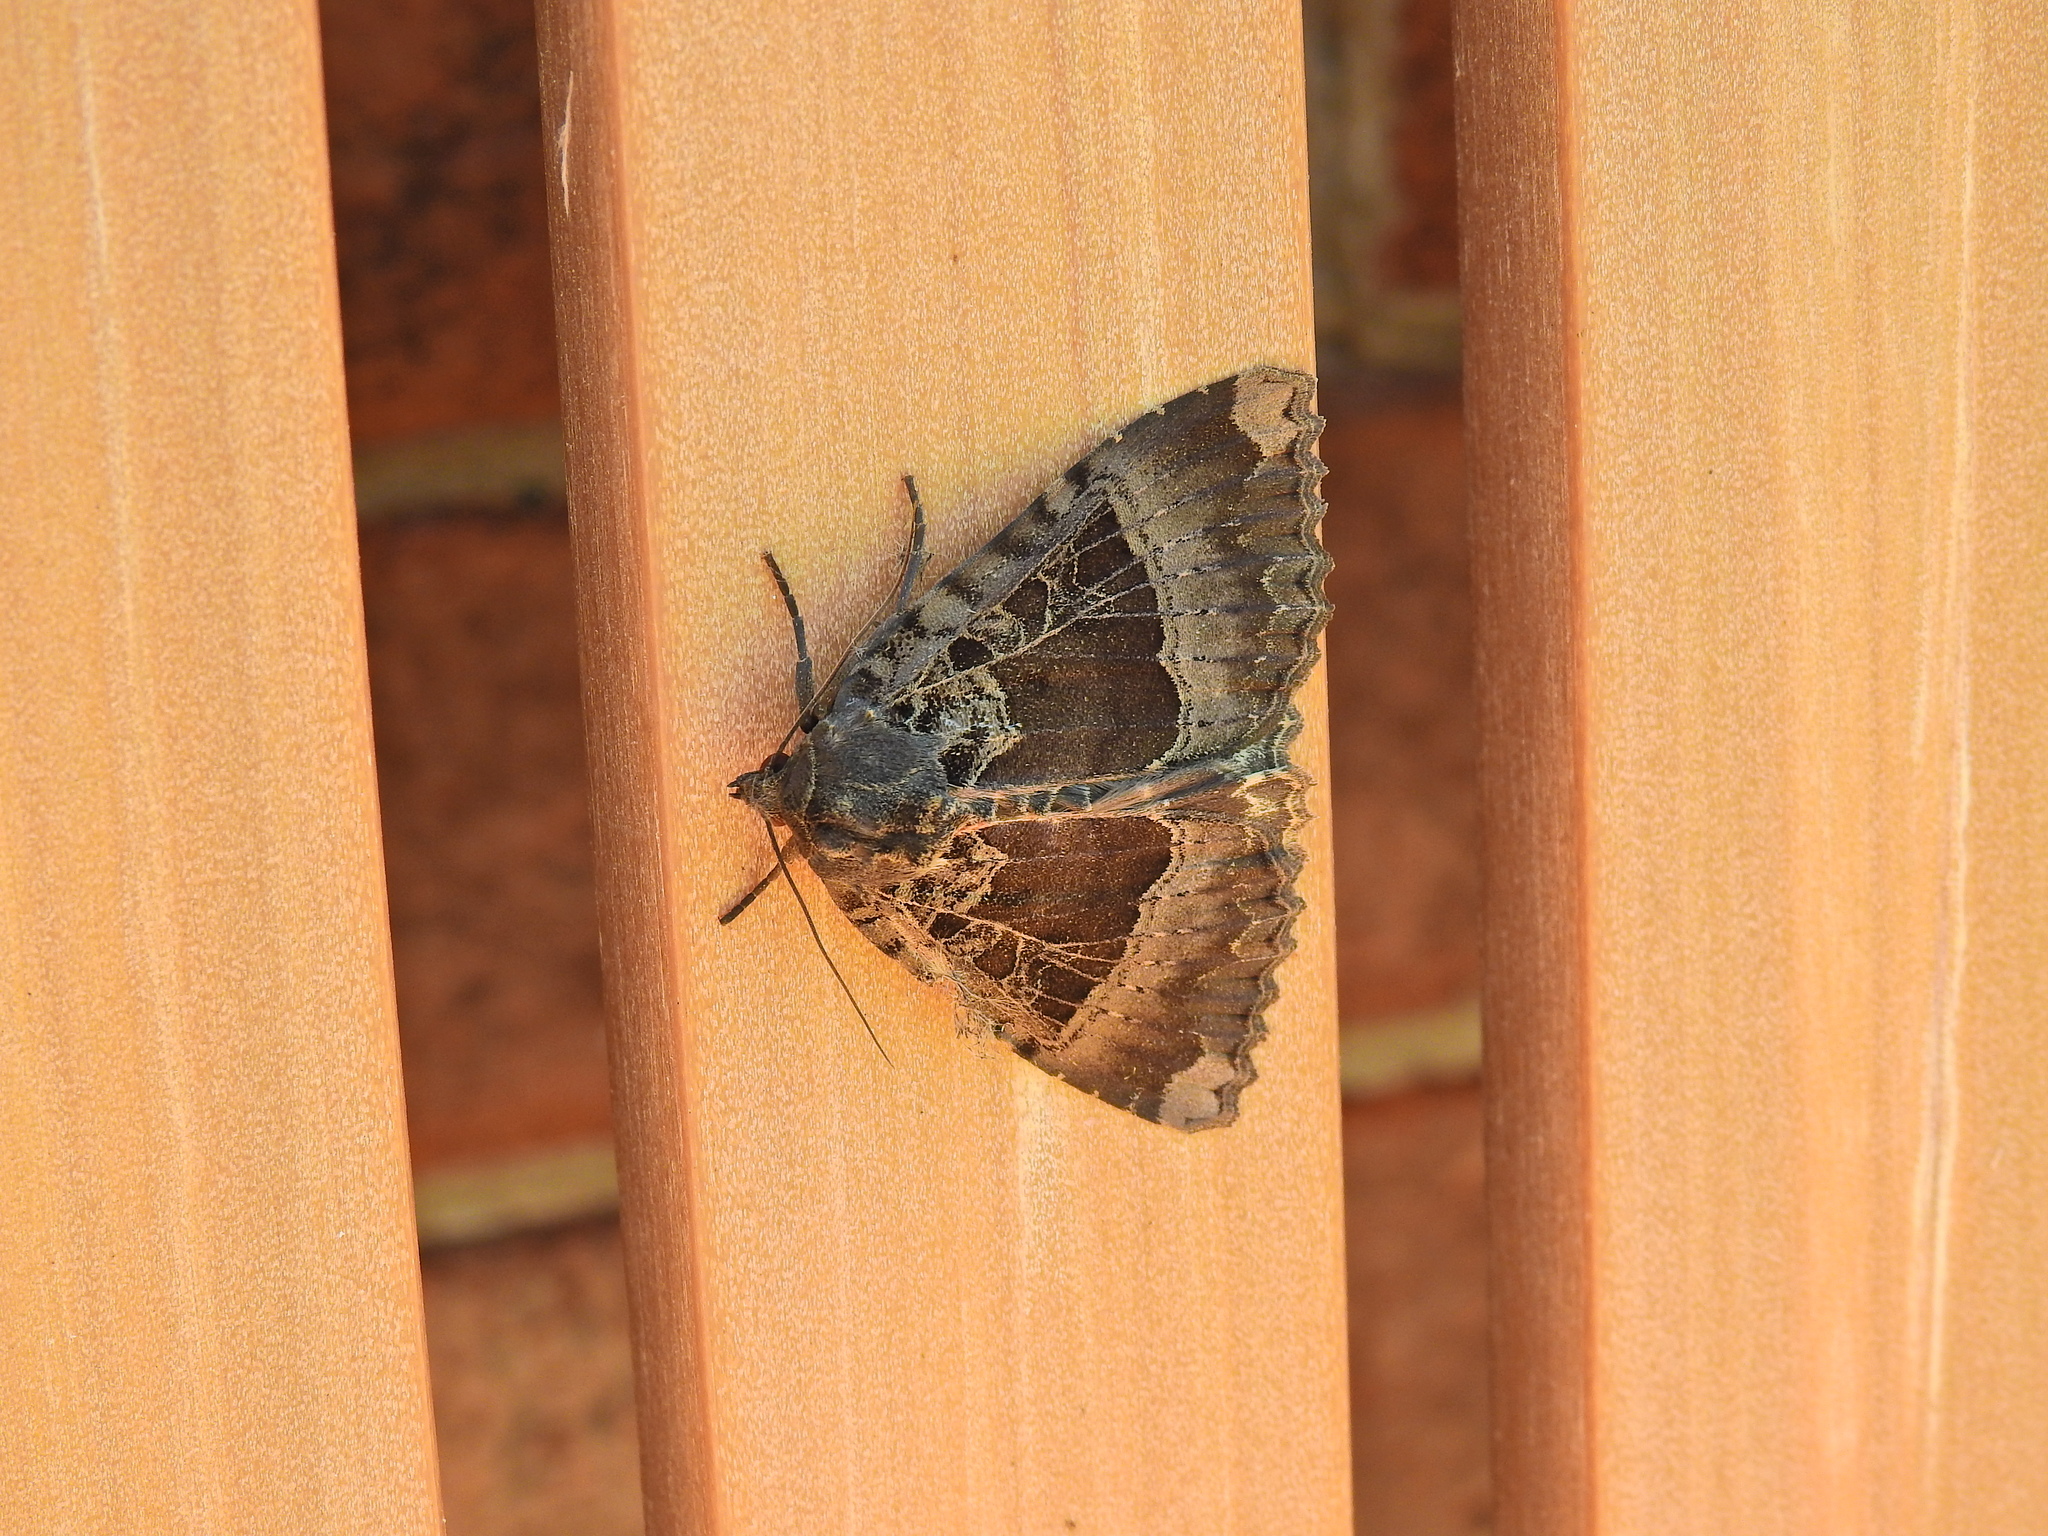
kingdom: Animalia
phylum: Arthropoda
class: Insecta
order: Lepidoptera
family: Noctuidae
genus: Mormo
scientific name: Mormo maura
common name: Old lady
